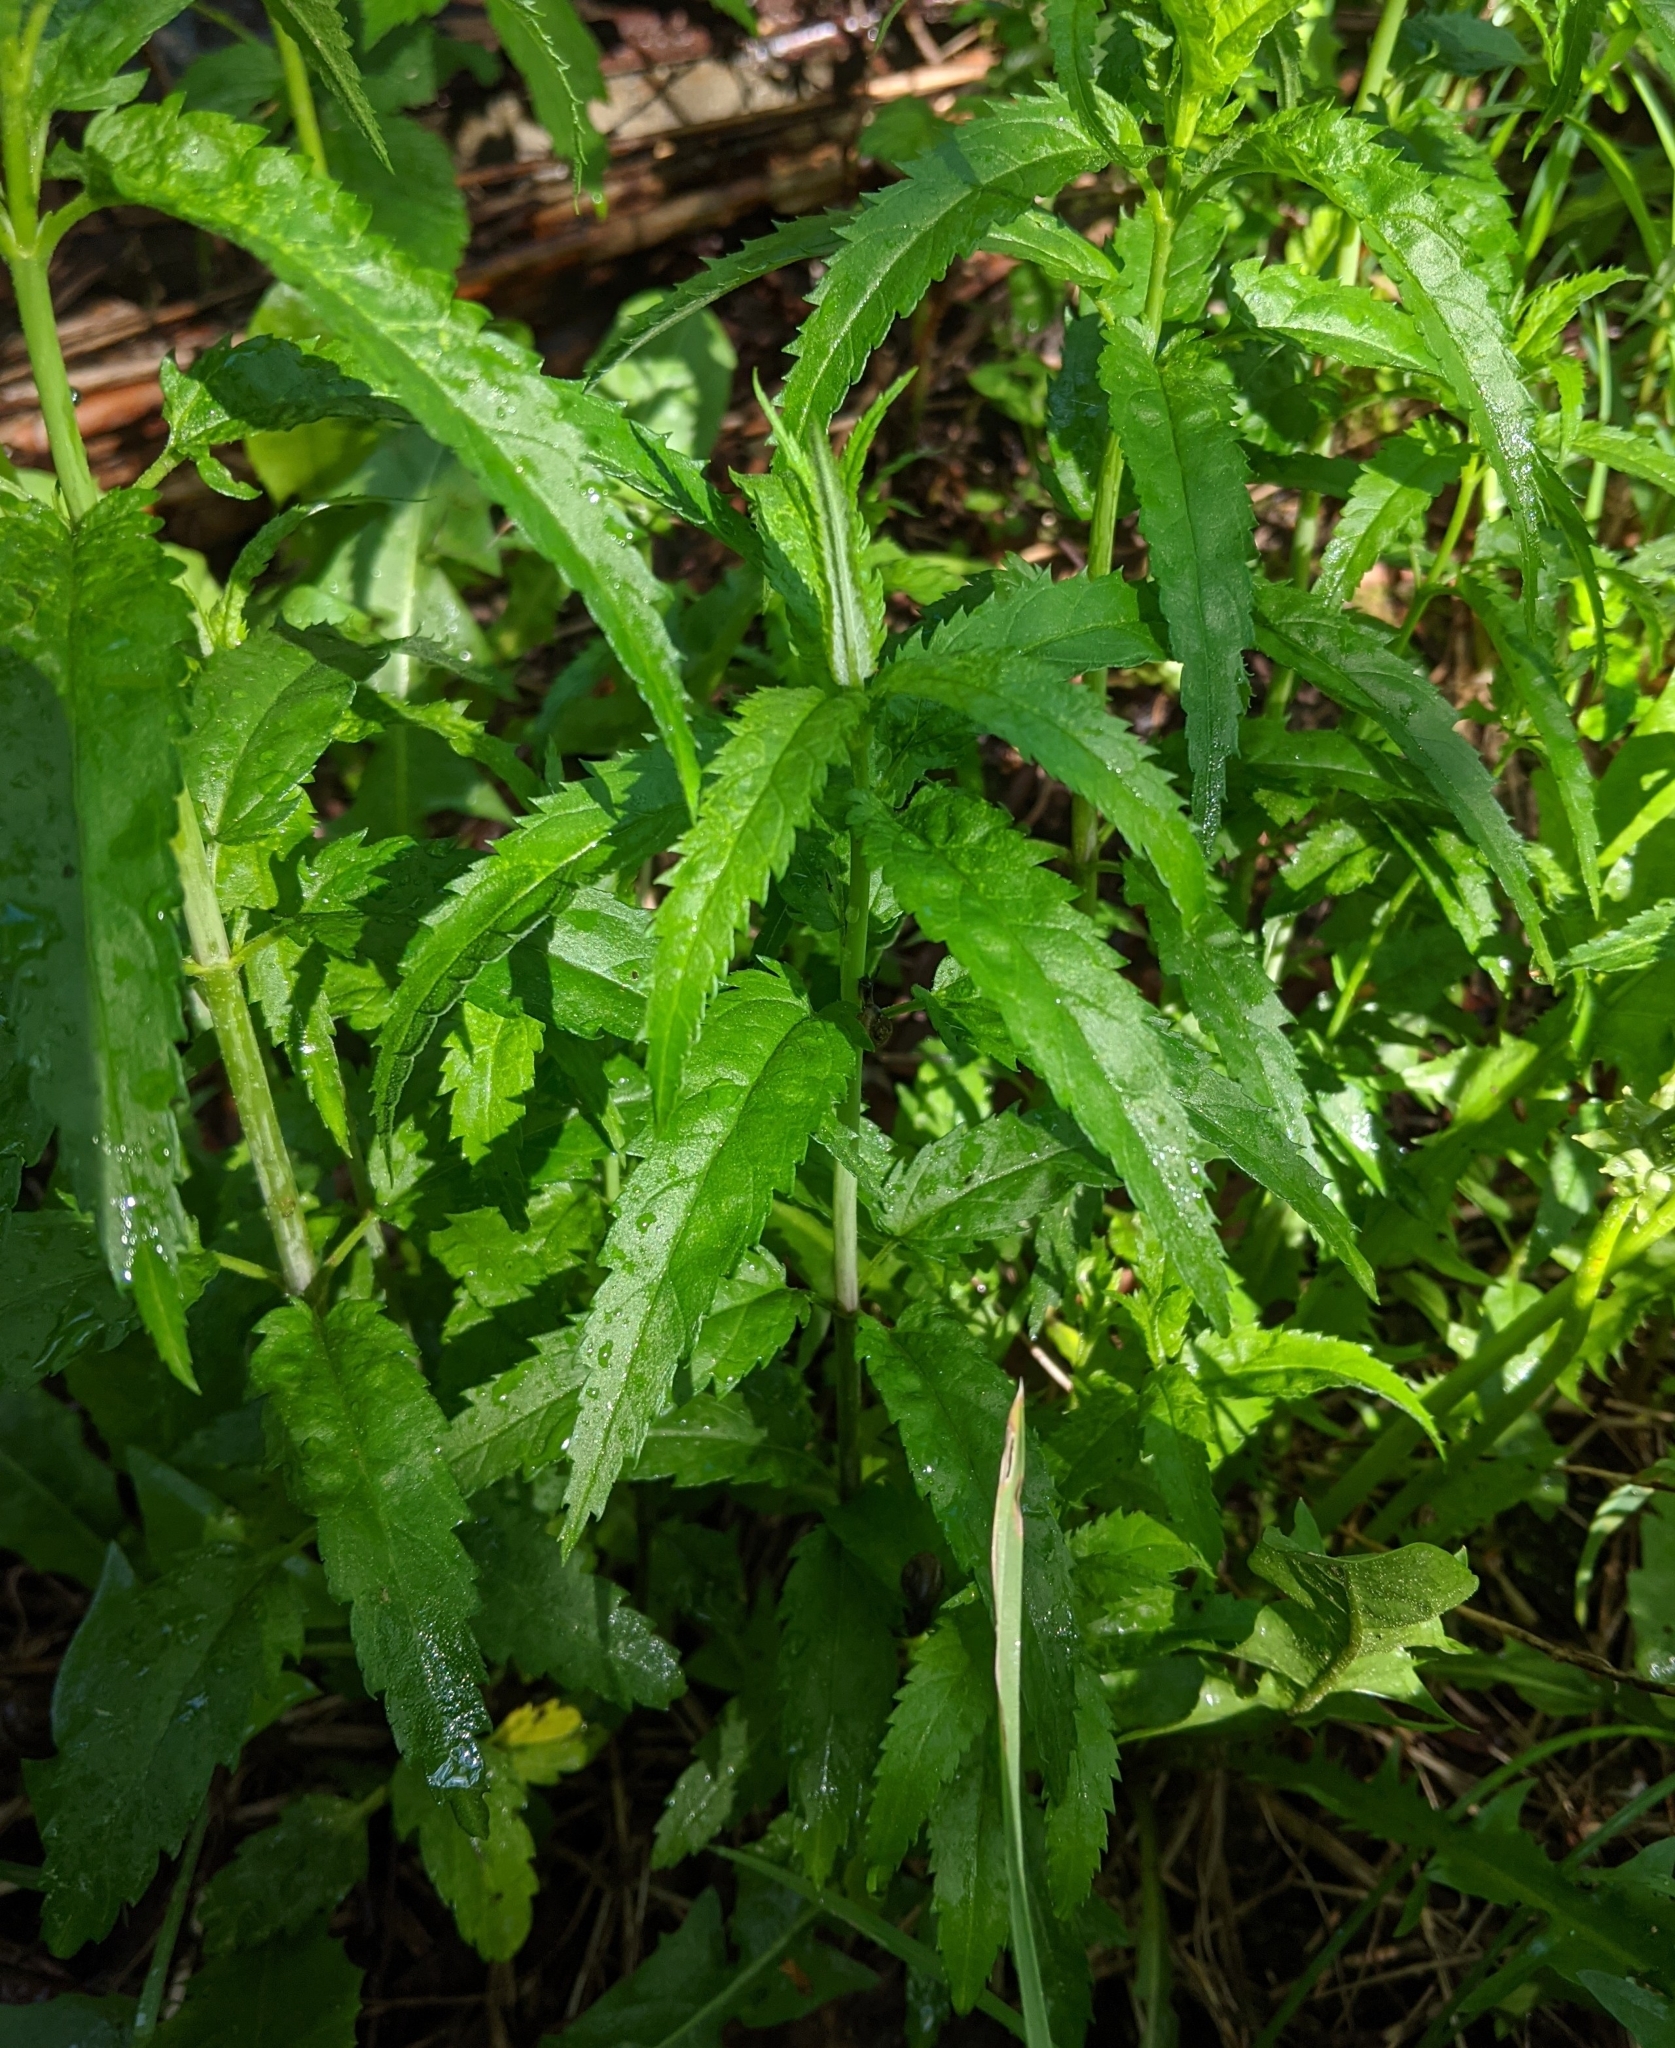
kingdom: Plantae
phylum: Tracheophyta
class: Magnoliopsida
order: Lamiales
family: Plantaginaceae
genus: Veronica
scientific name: Veronica longifolia
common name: Garden speedwell
